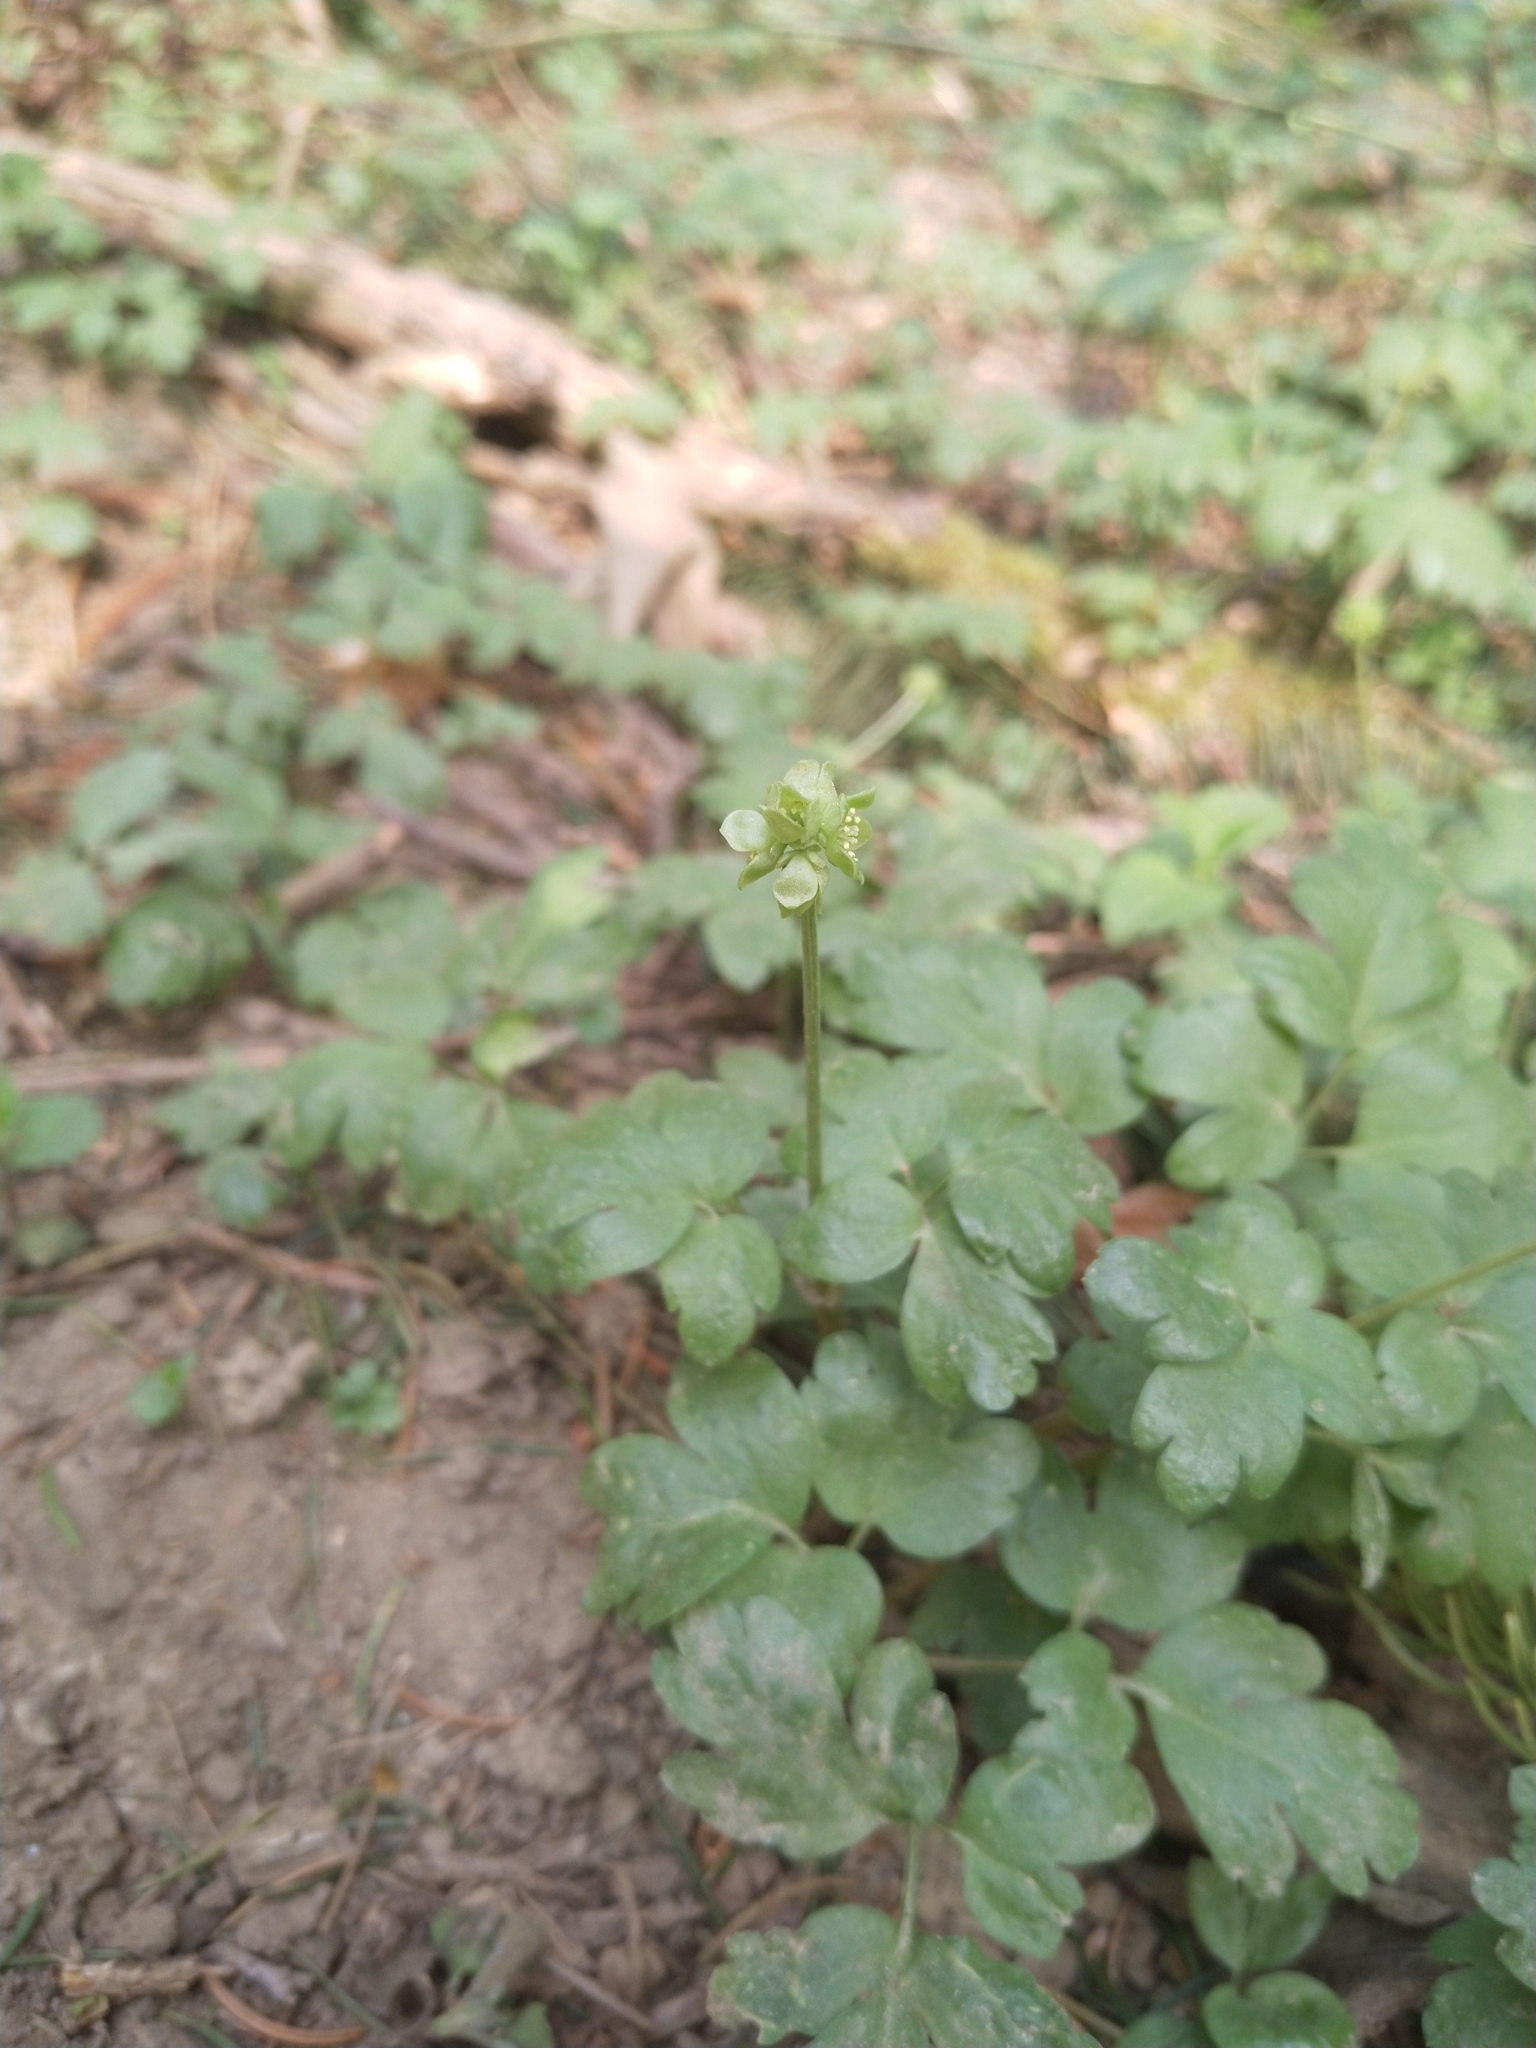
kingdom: Plantae
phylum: Tracheophyta
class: Magnoliopsida
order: Dipsacales
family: Viburnaceae
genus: Adoxa
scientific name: Adoxa moschatellina
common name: Moschatel
